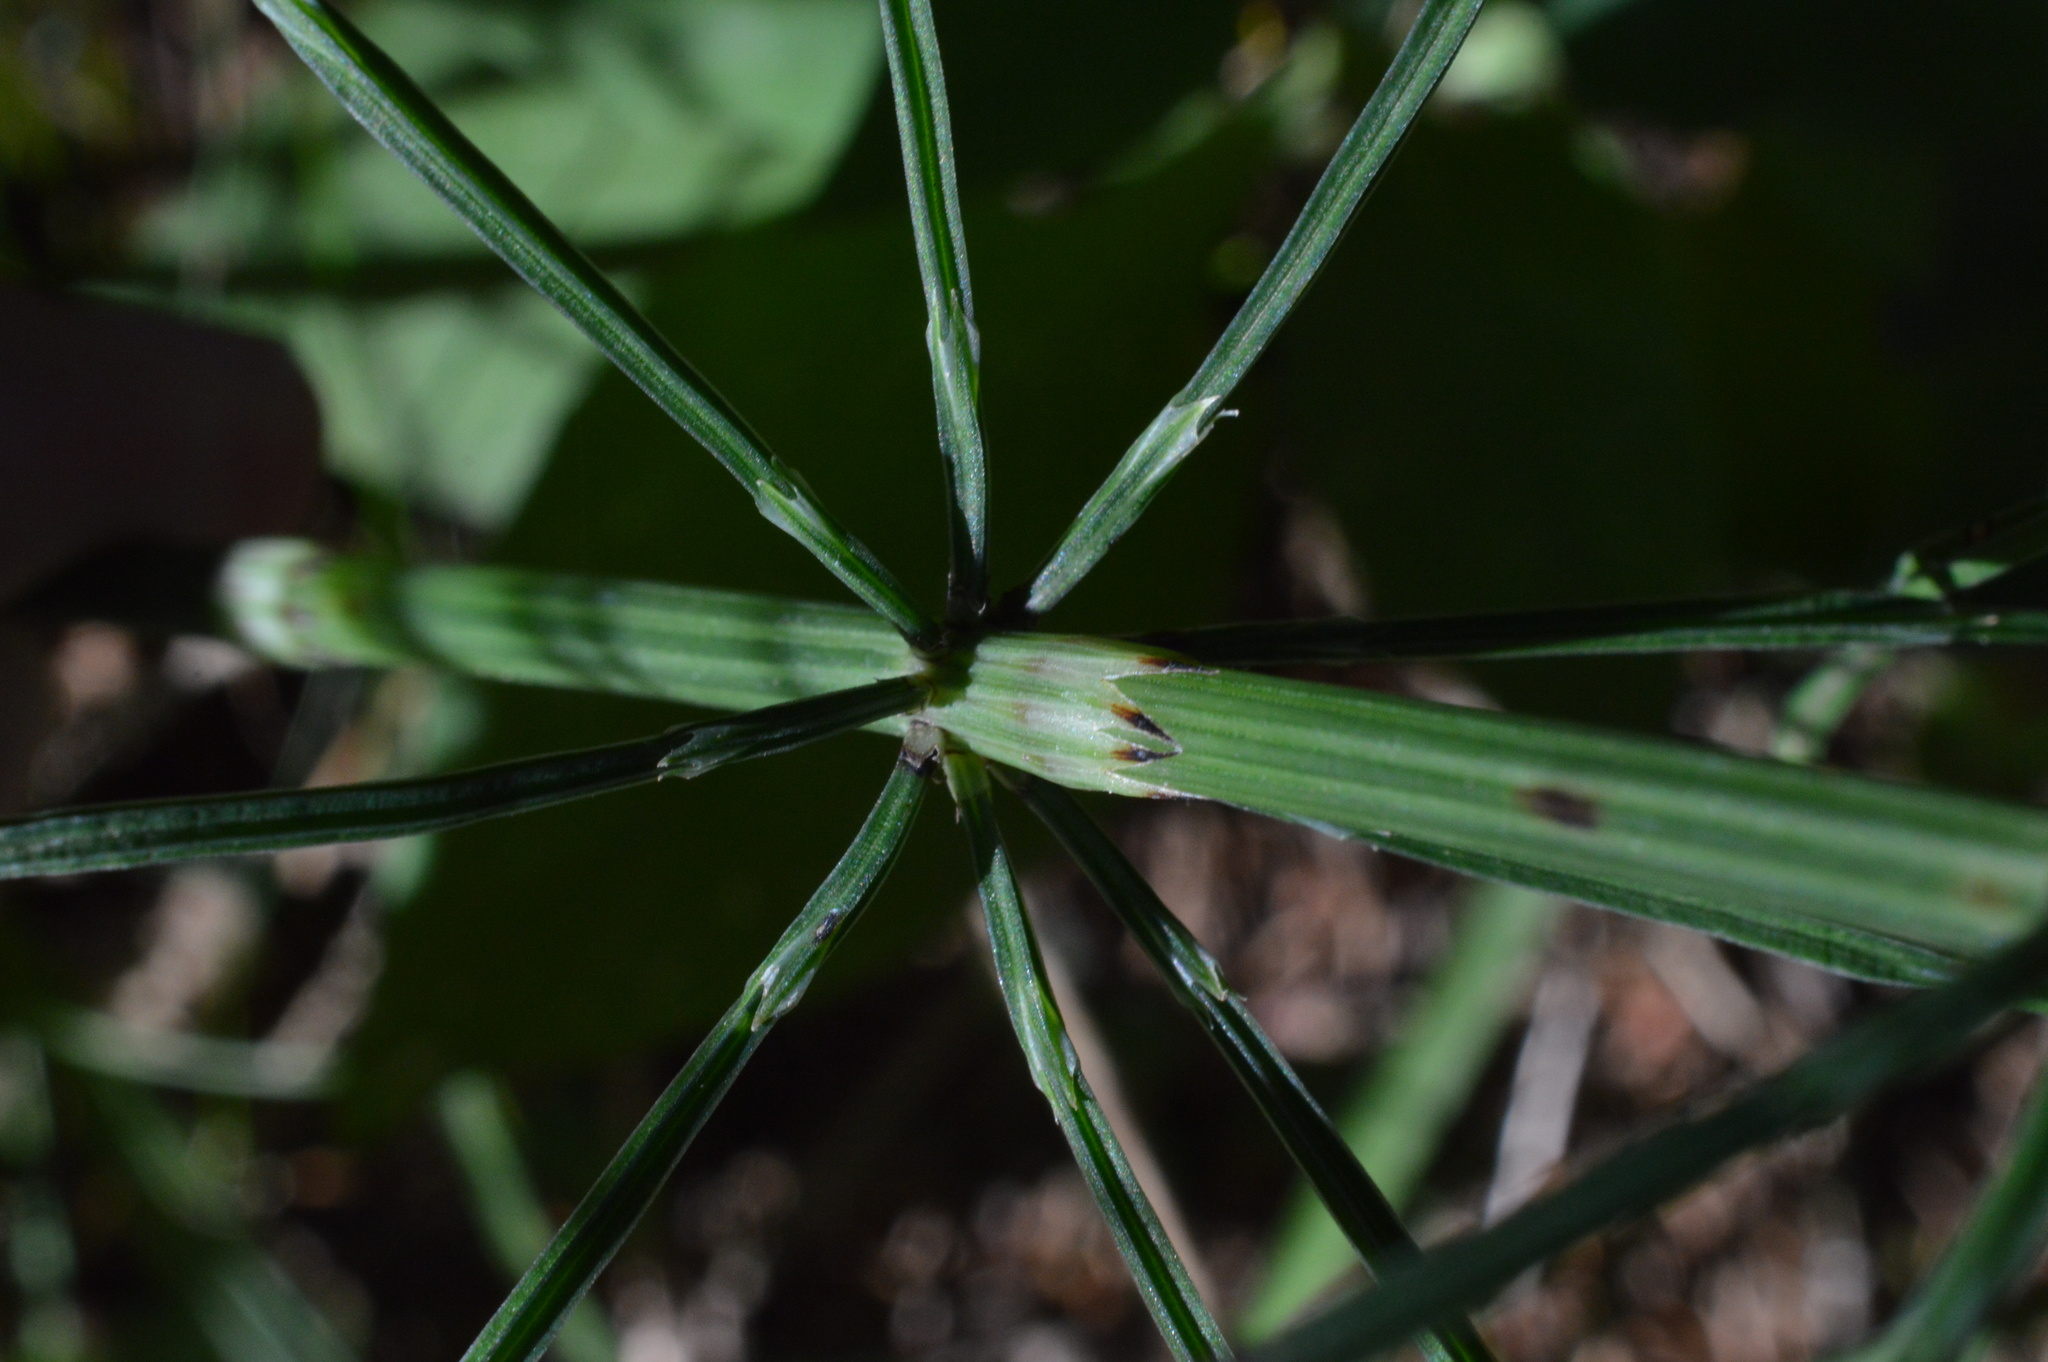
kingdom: Plantae
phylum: Tracheophyta
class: Polypodiopsida
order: Equisetales
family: Equisetaceae
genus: Equisetum
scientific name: Equisetum arvense
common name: Field horsetail
